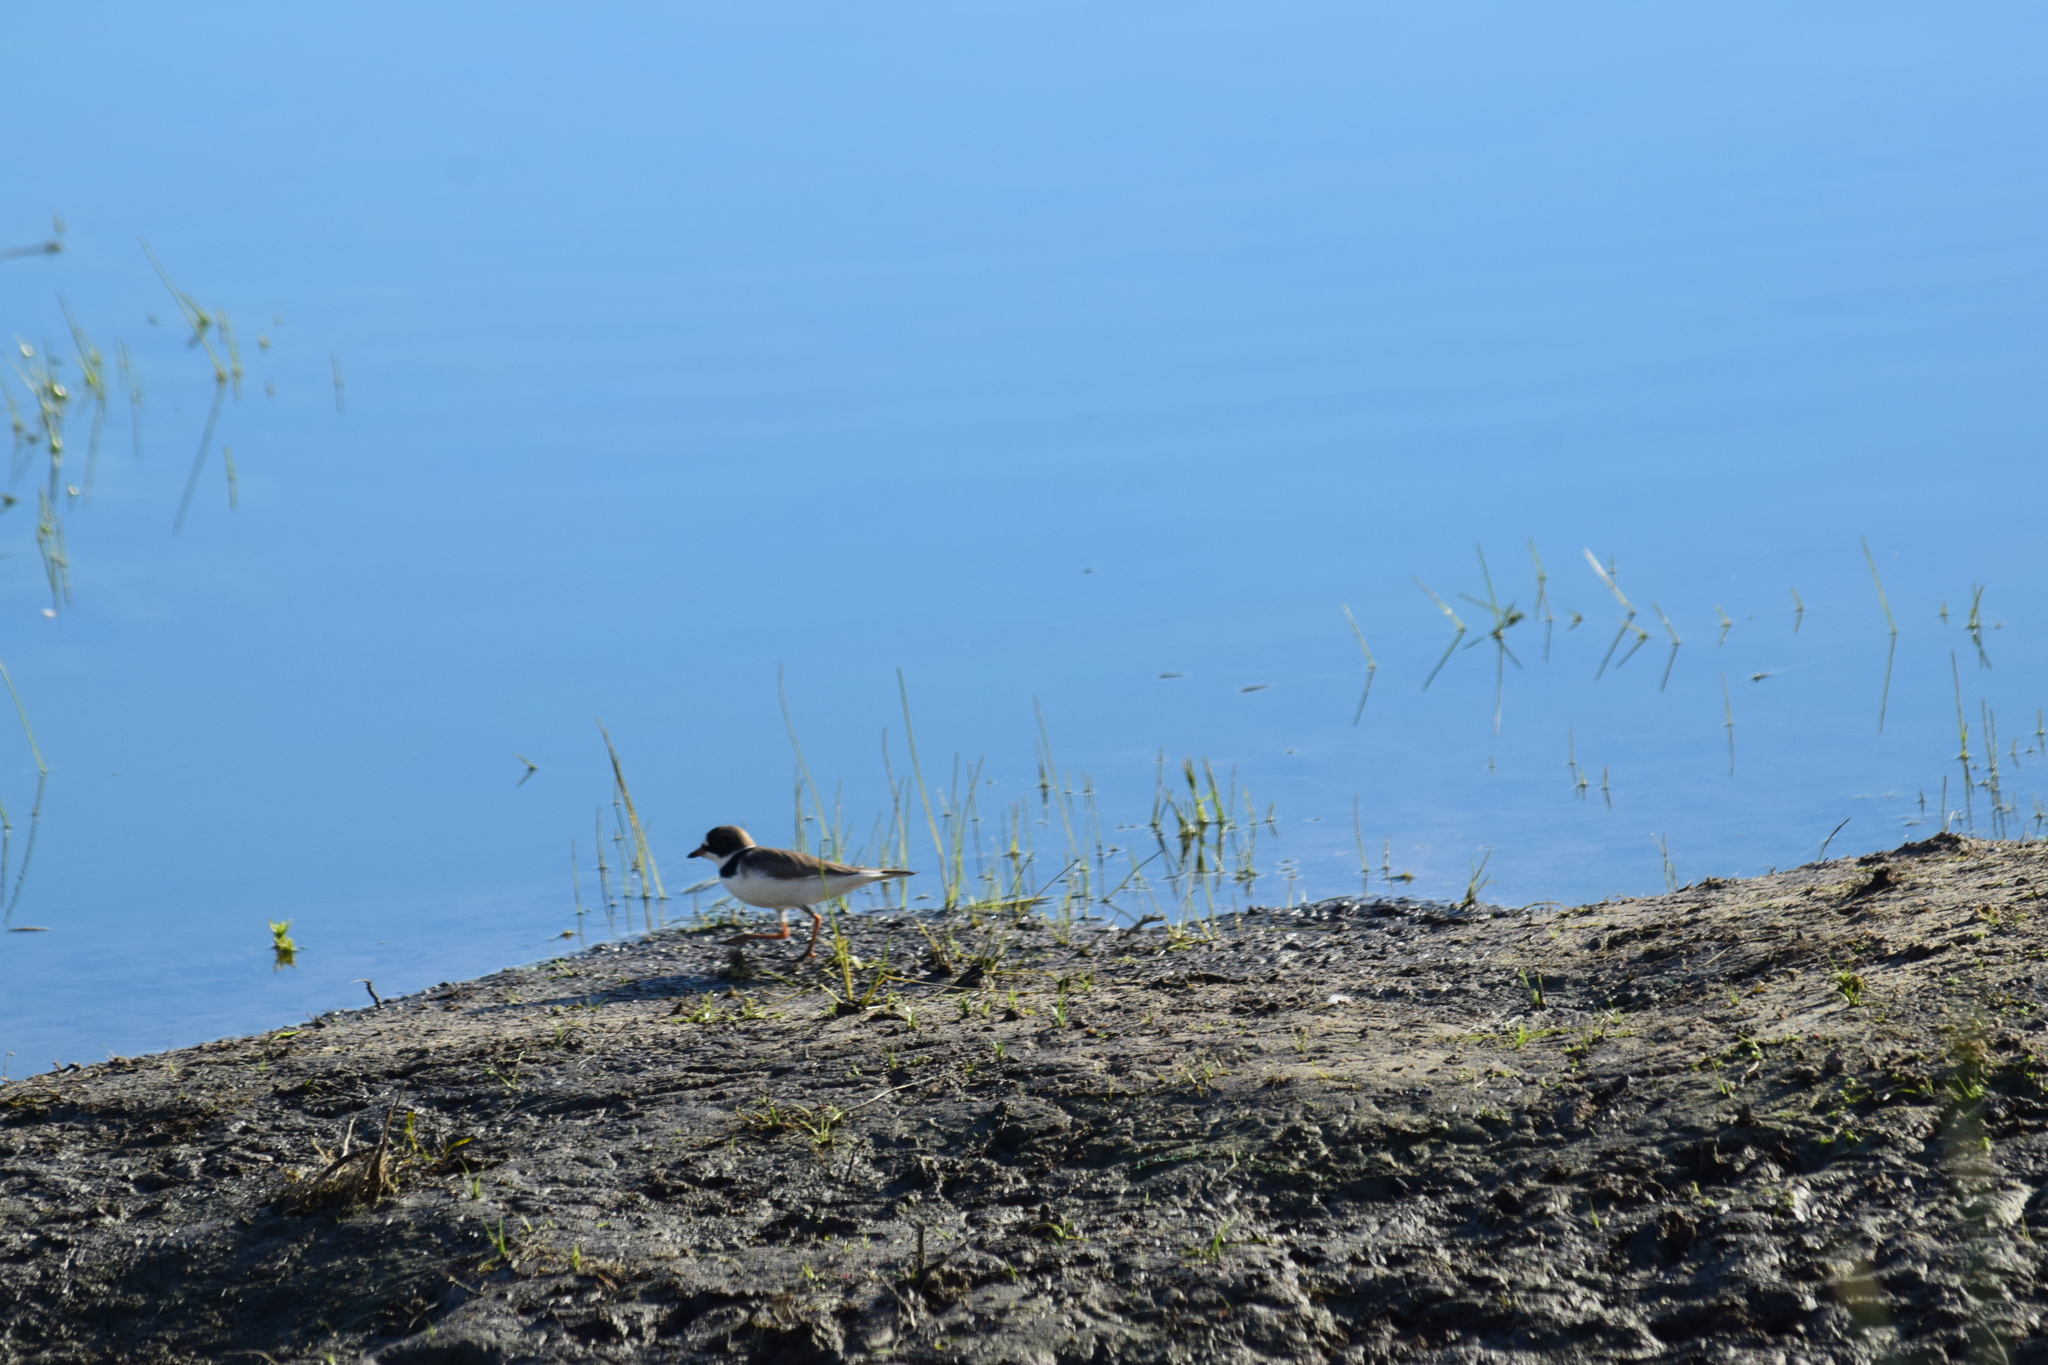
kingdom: Animalia
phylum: Chordata
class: Aves
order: Charadriiformes
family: Charadriidae
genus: Charadrius
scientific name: Charadrius semipalmatus
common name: Semipalmated plover
